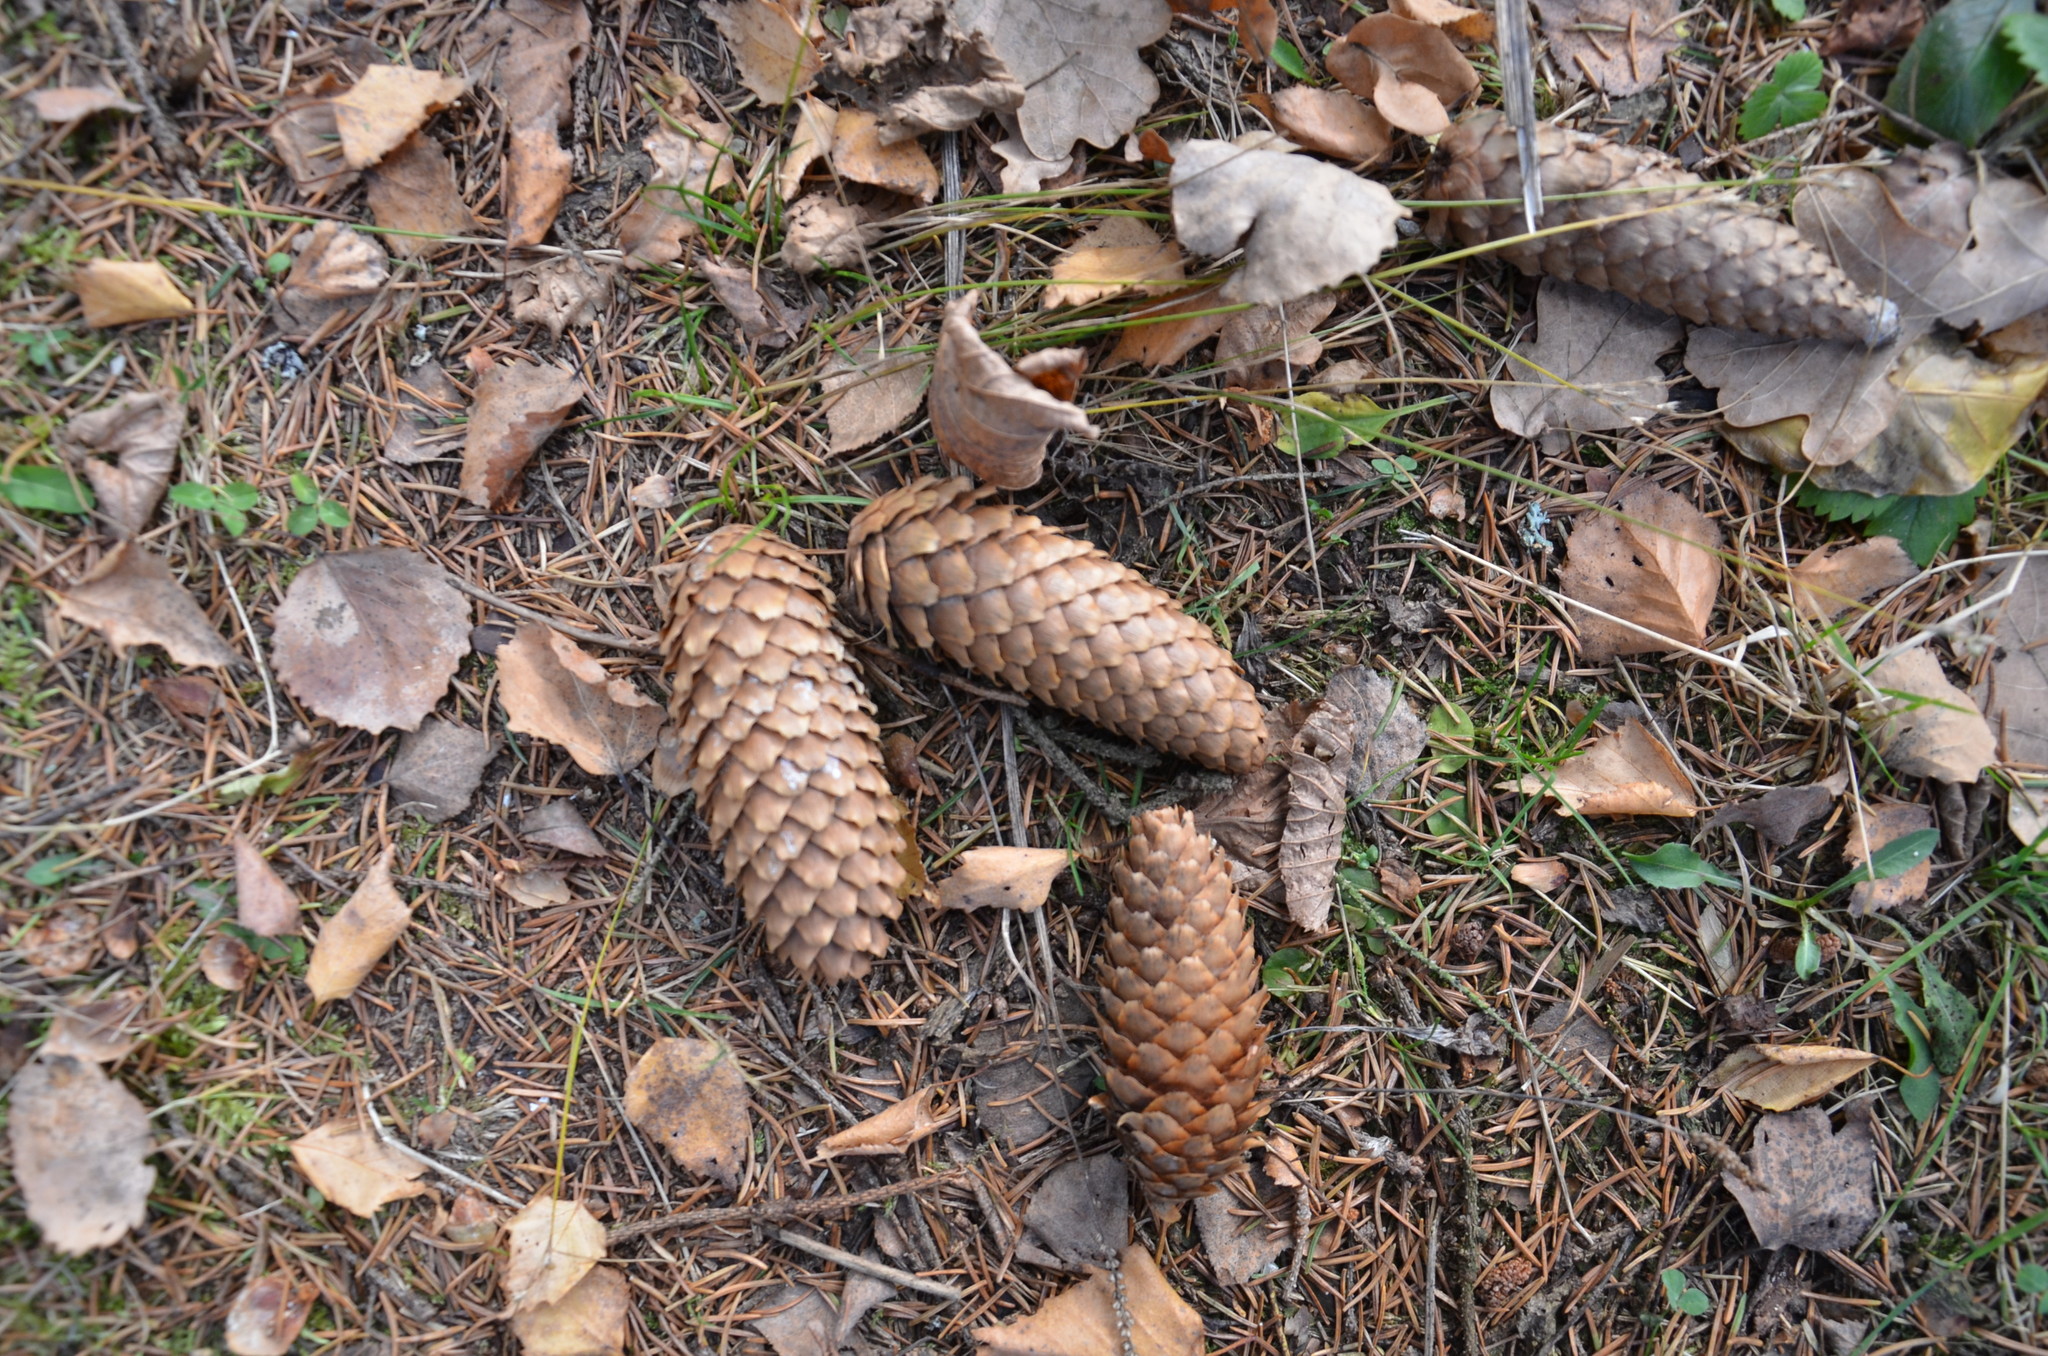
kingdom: Plantae
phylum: Tracheophyta
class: Pinopsida
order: Pinales
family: Pinaceae
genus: Picea
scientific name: Picea abies
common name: Norway spruce
